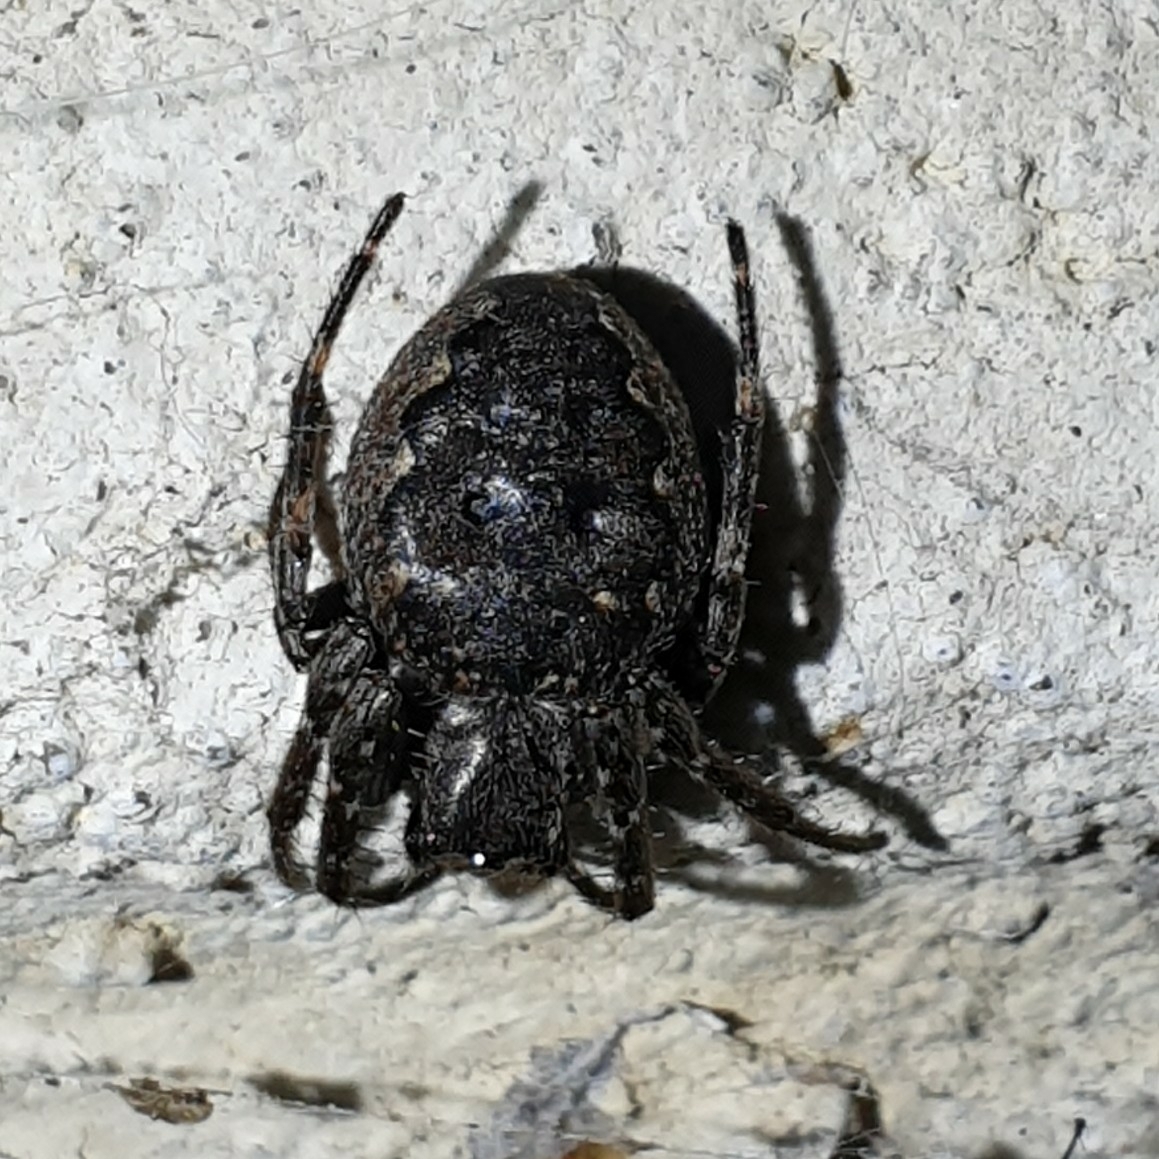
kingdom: Animalia
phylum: Arthropoda
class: Arachnida
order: Araneae
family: Araneidae
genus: Nuctenea
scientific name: Nuctenea umbratica
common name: Toad spider
